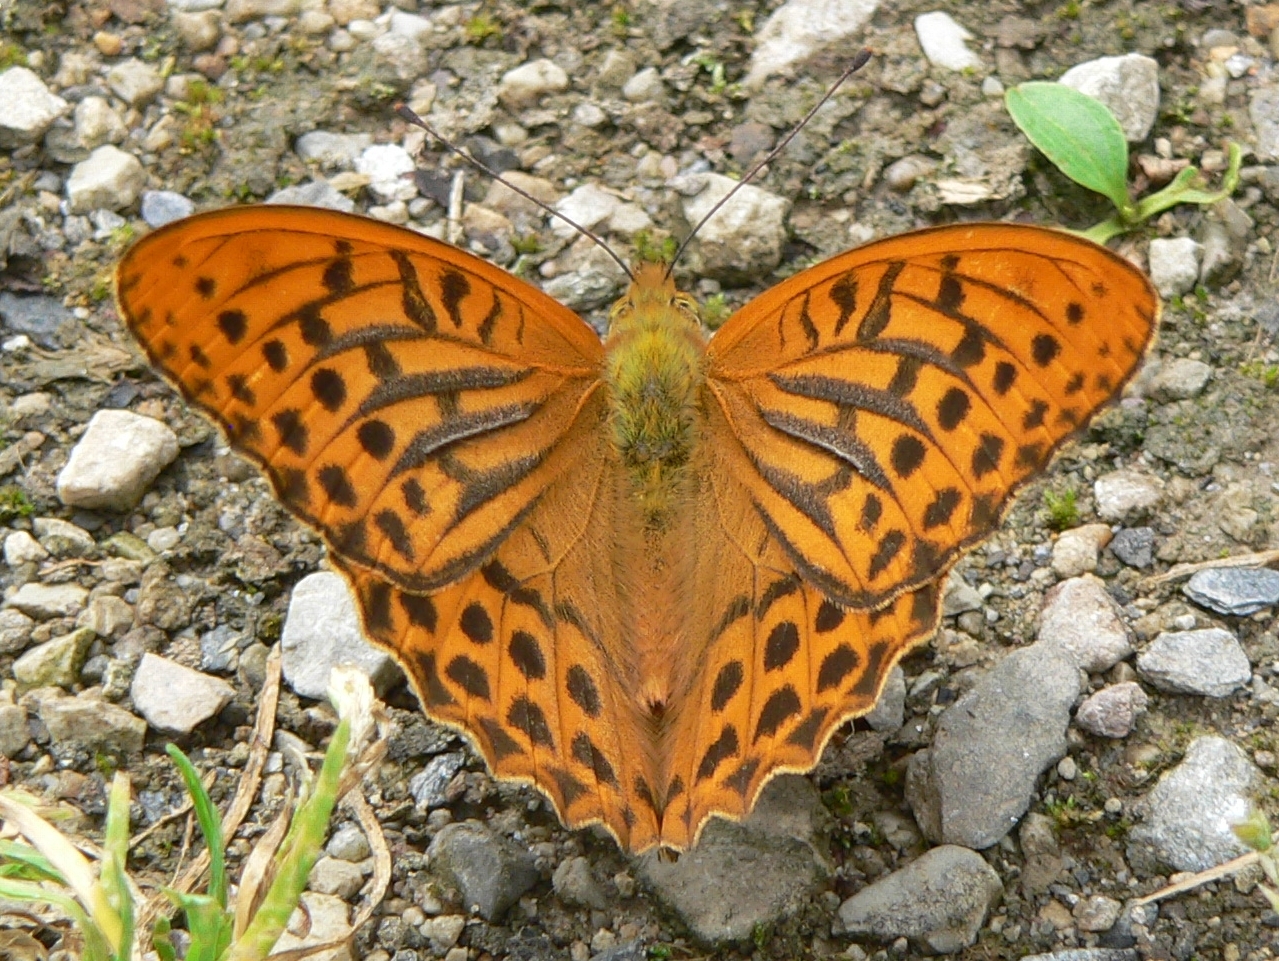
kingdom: Animalia
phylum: Arthropoda
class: Insecta
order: Lepidoptera
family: Nymphalidae
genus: Argynnis
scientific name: Argynnis paphia
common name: Silver-washed fritillary
